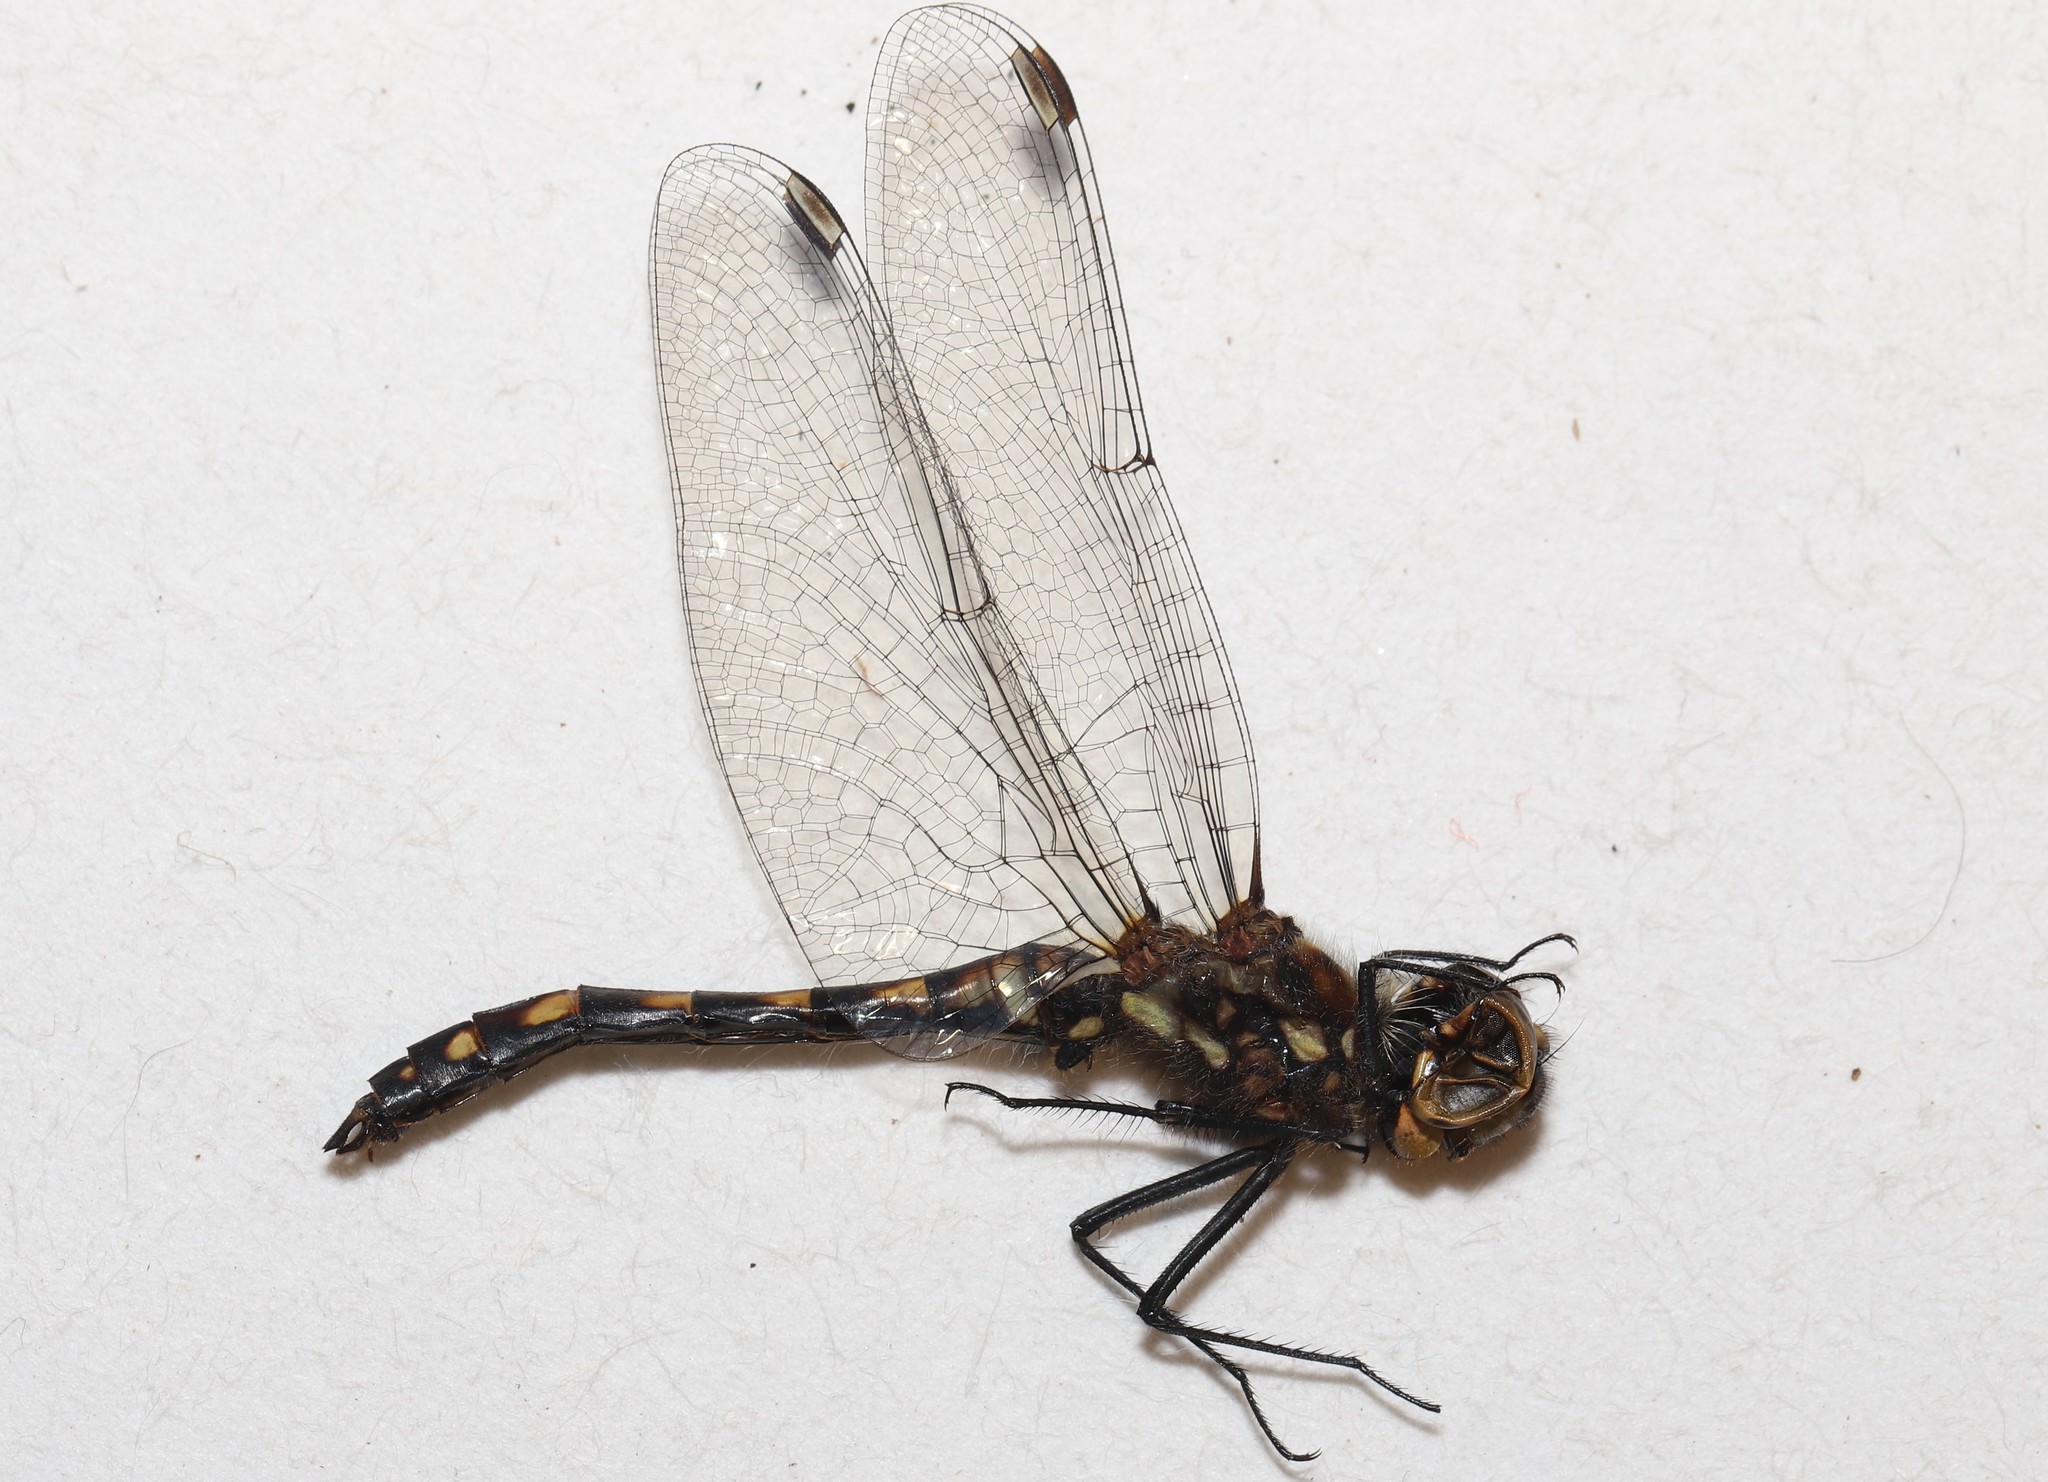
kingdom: Animalia
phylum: Arthropoda
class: Insecta
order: Odonata
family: Libellulidae
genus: Sympetrum
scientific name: Sympetrum danae
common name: Black darter
